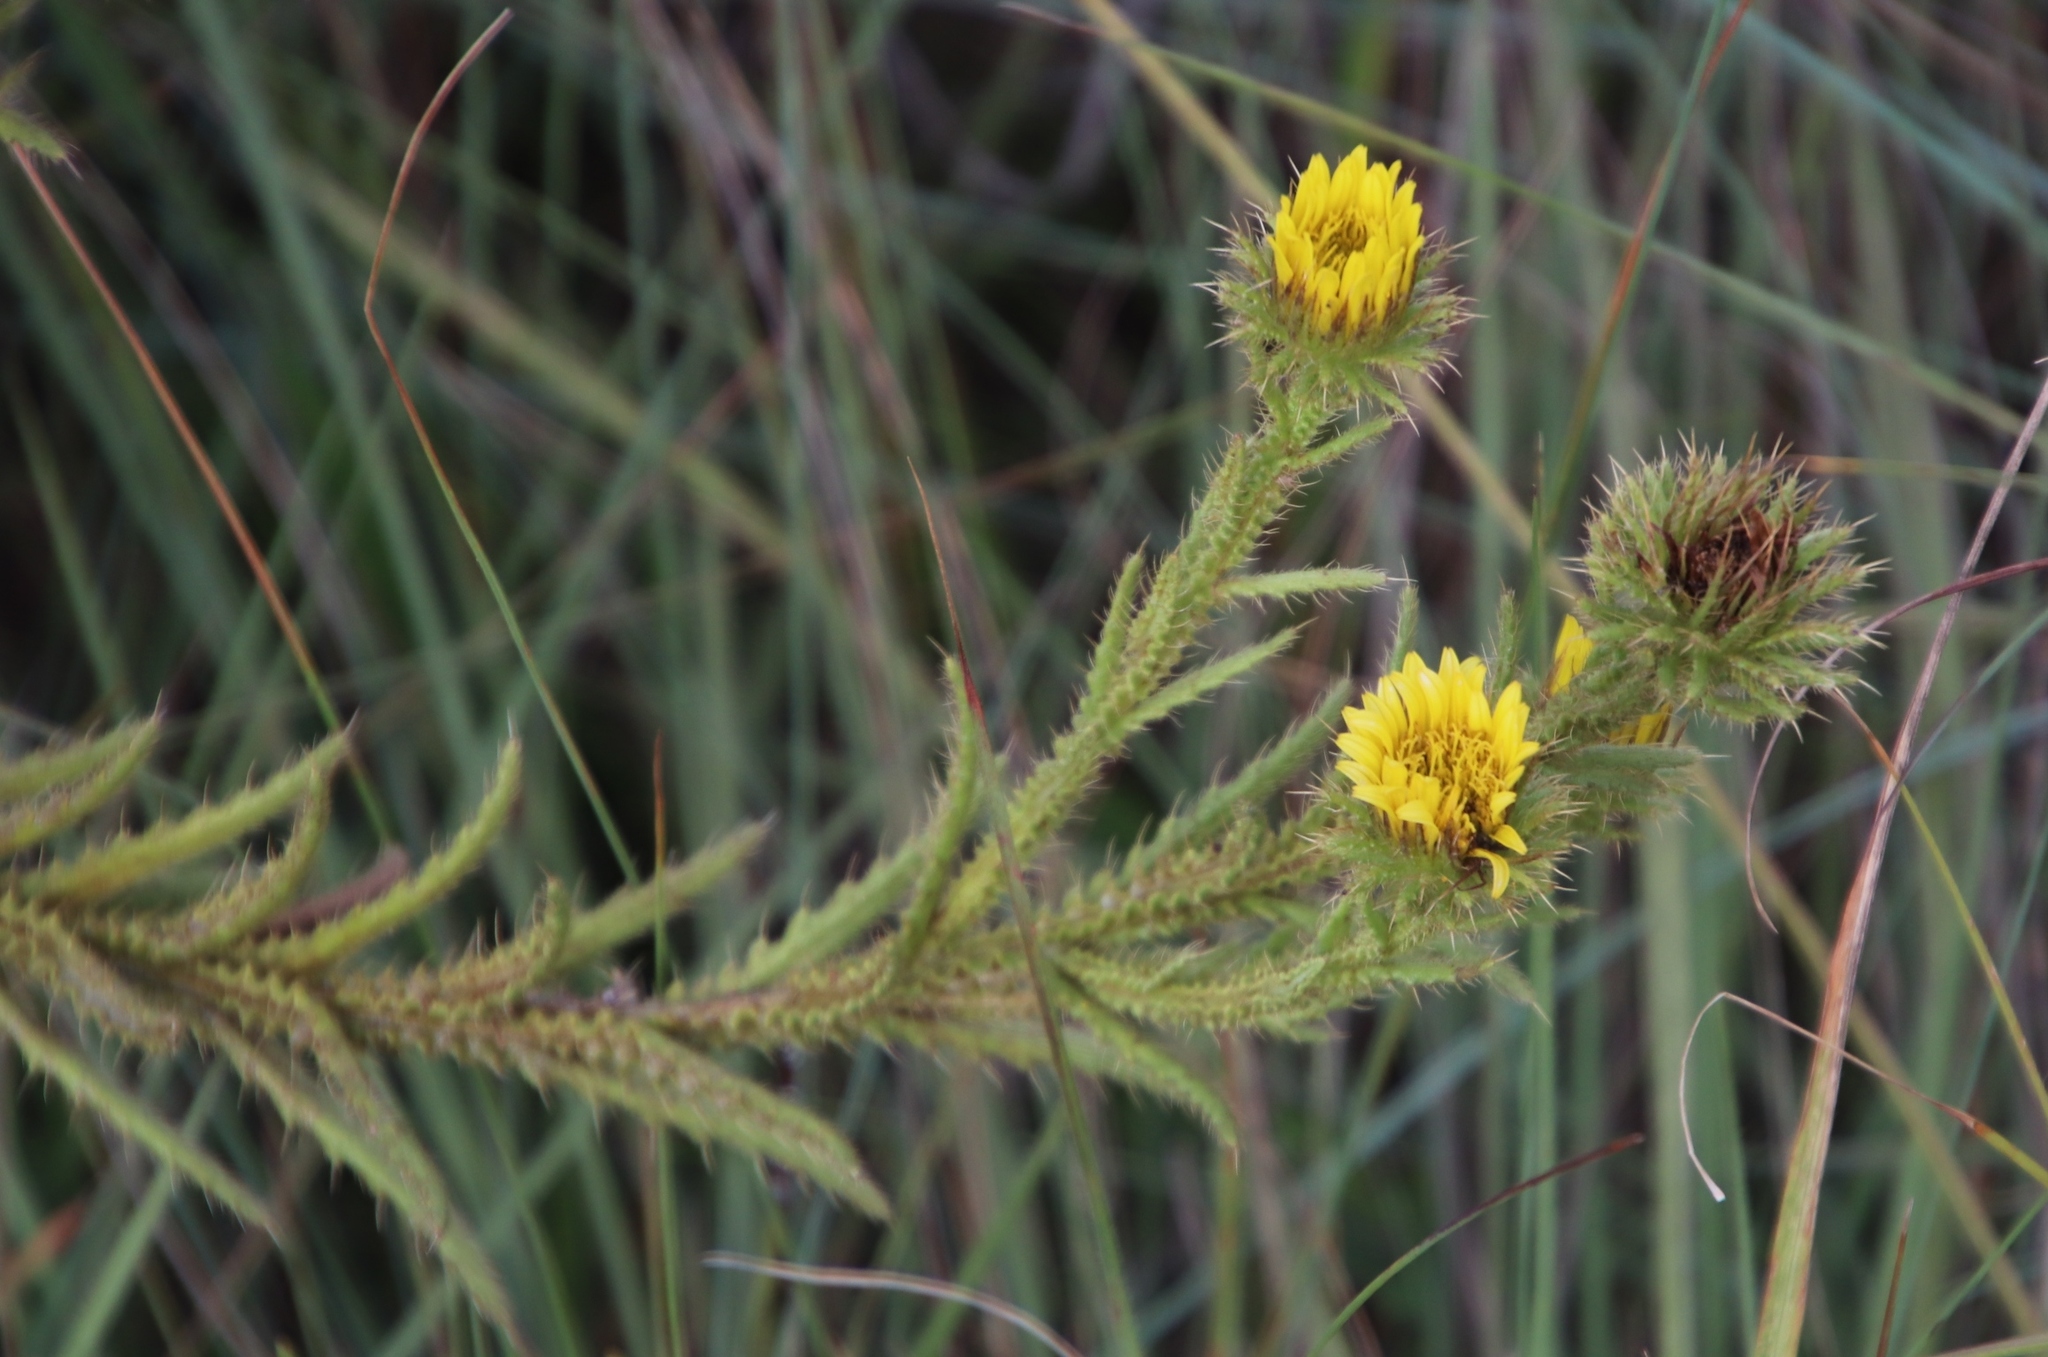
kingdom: Plantae
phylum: Tracheophyta
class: Magnoliopsida
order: Asterales
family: Asteraceae
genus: Berkheya
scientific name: Berkheya echinacea
